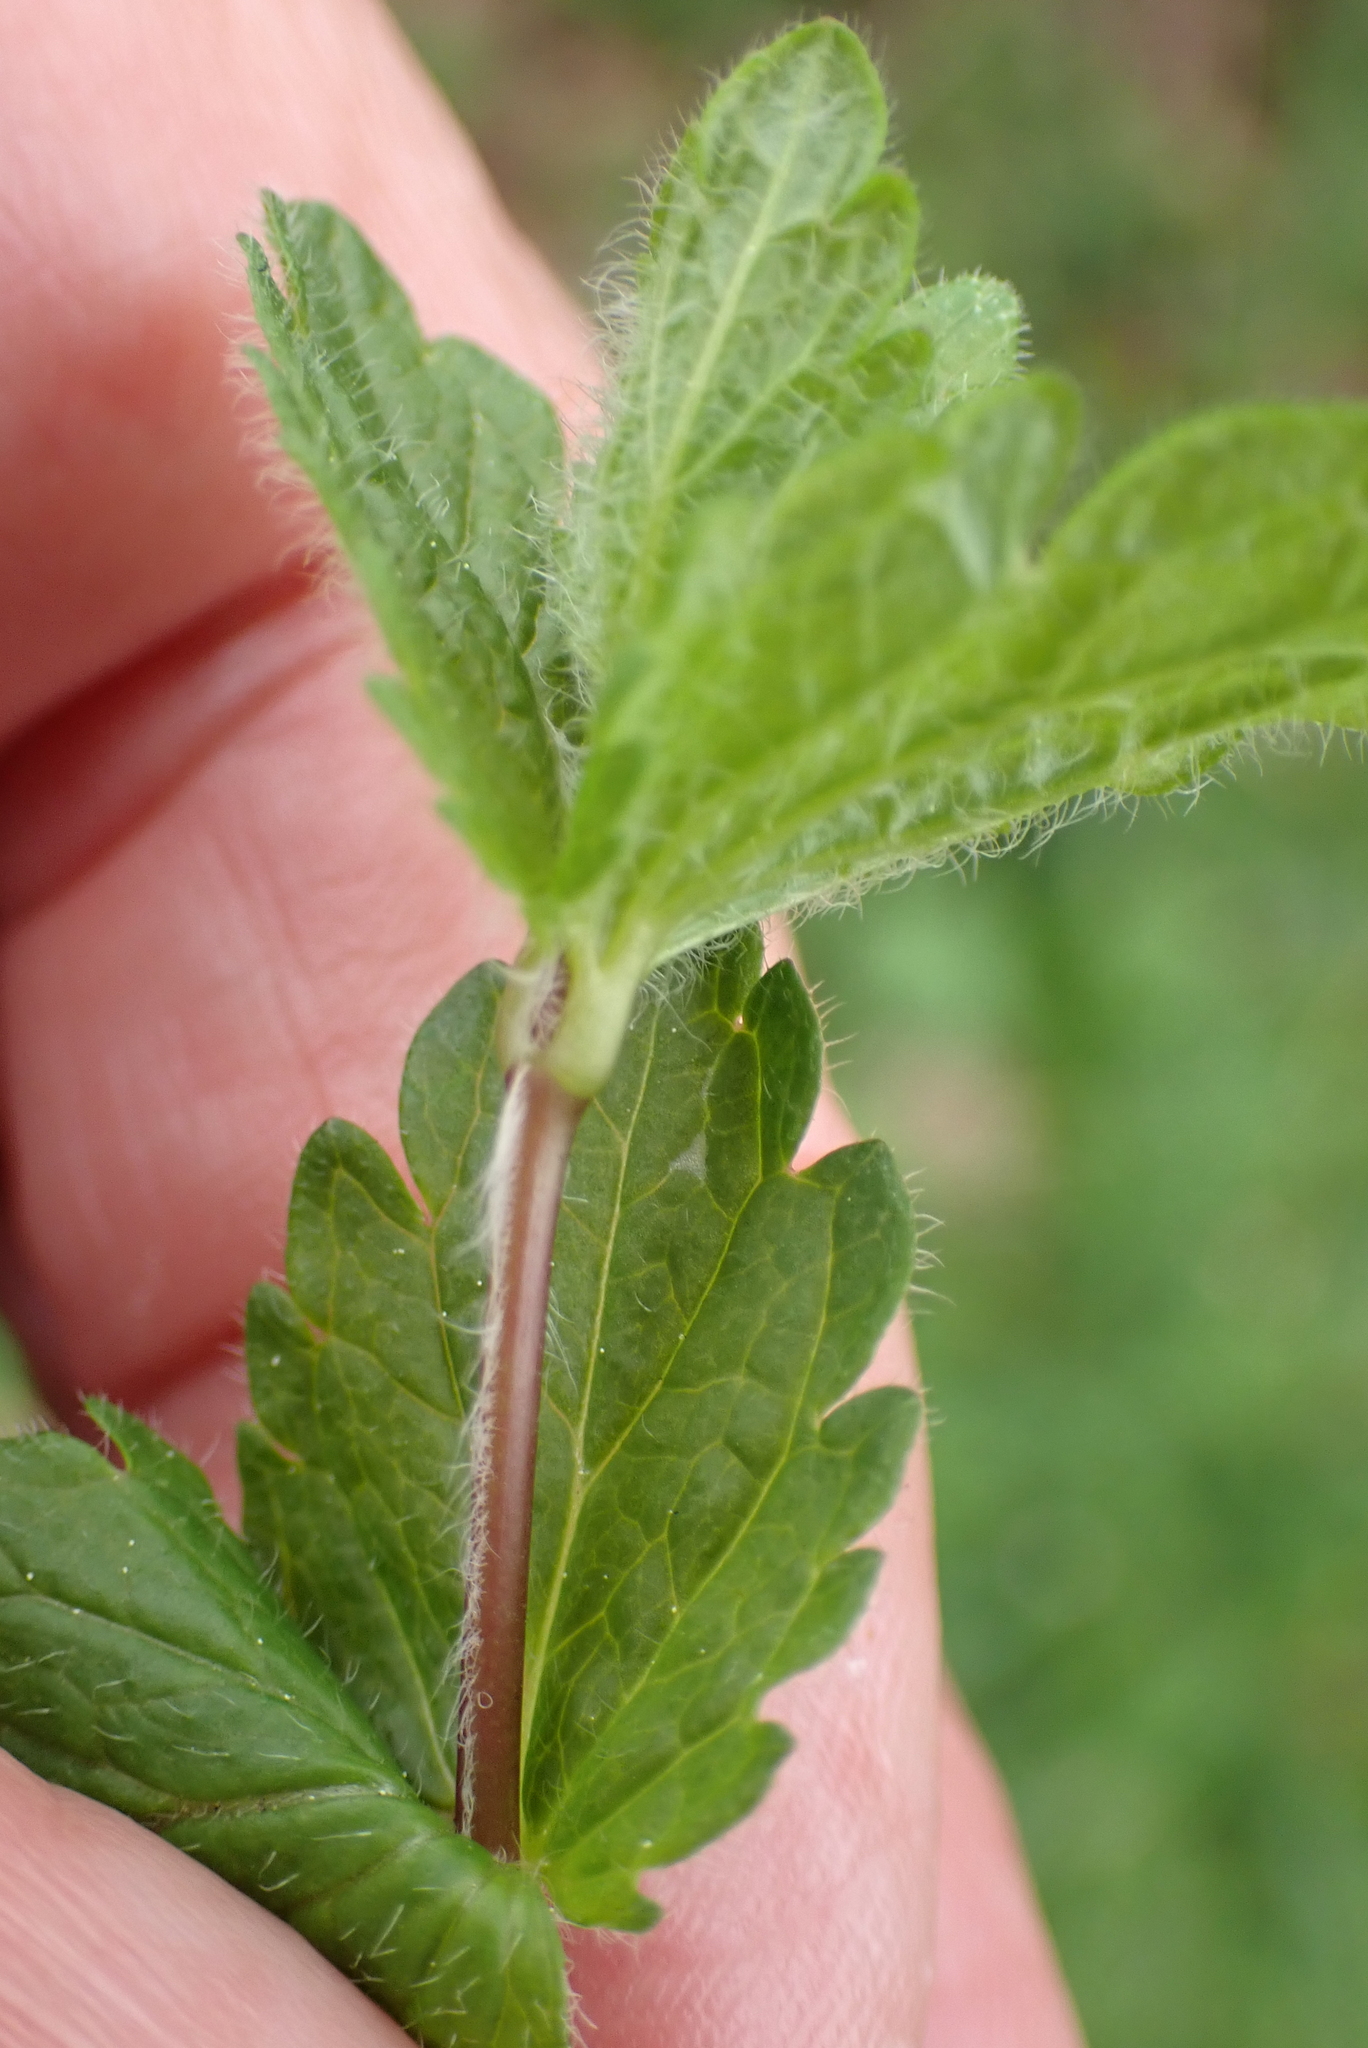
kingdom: Plantae
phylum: Tracheophyta
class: Magnoliopsida
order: Lamiales
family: Plantaginaceae
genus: Veronica
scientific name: Veronica chamaedrys
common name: Germander speedwell
